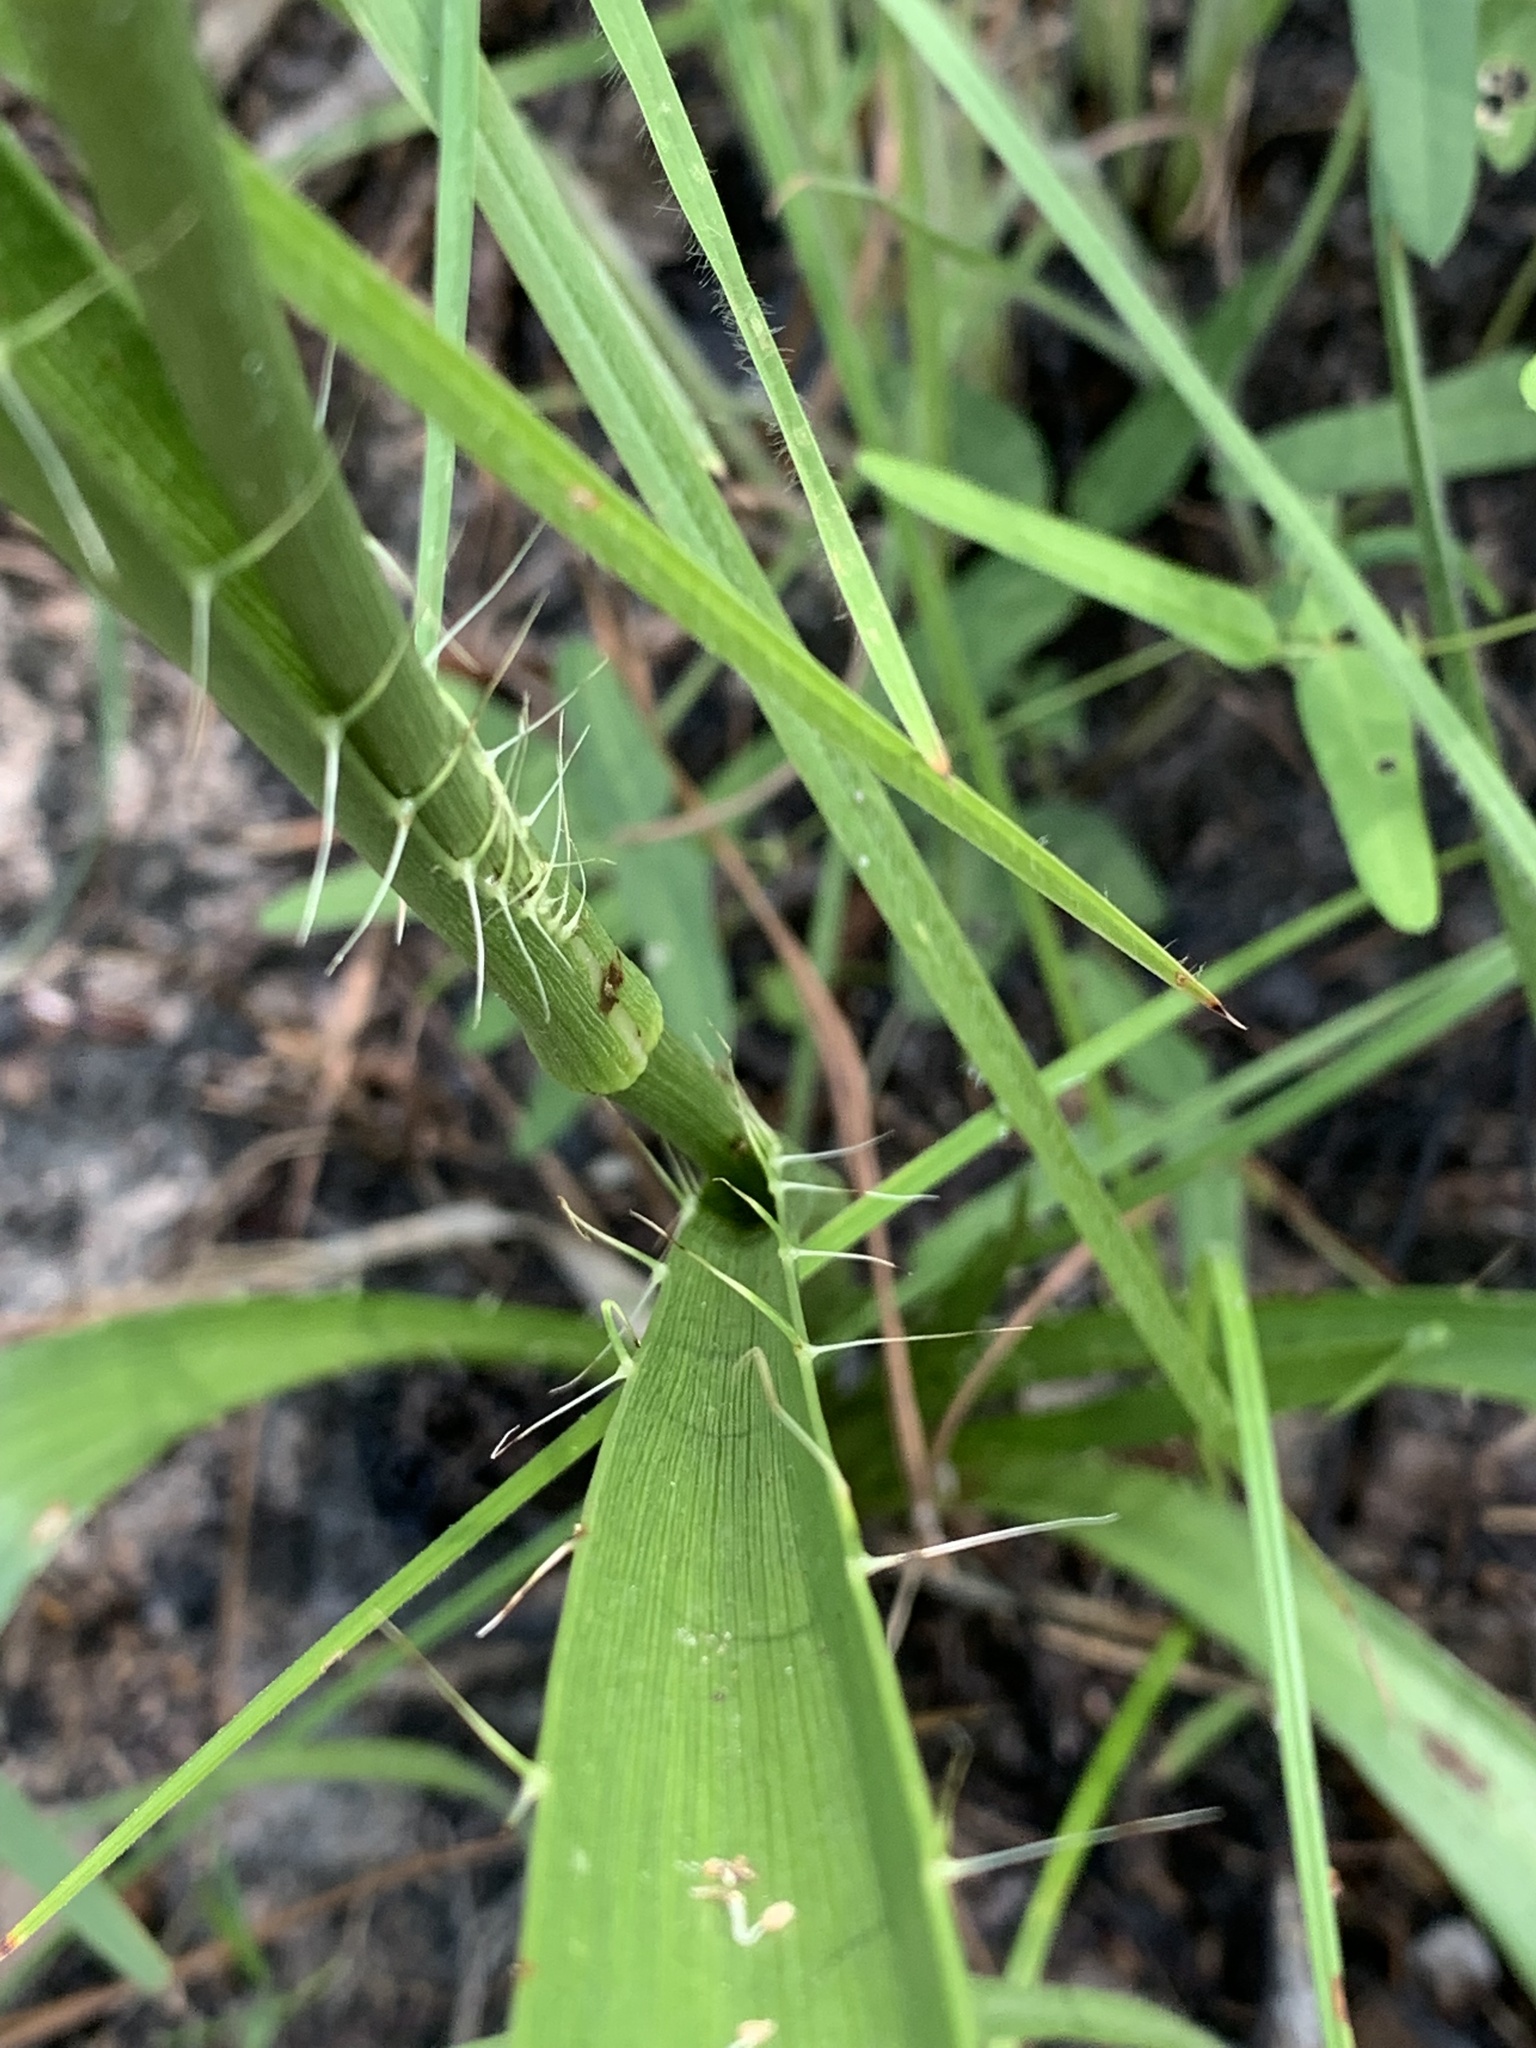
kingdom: Plantae
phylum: Tracheophyta
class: Magnoliopsida
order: Apiales
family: Apiaceae
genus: Eryngium
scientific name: Eryngium yuccifolium
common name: Button eryngo
